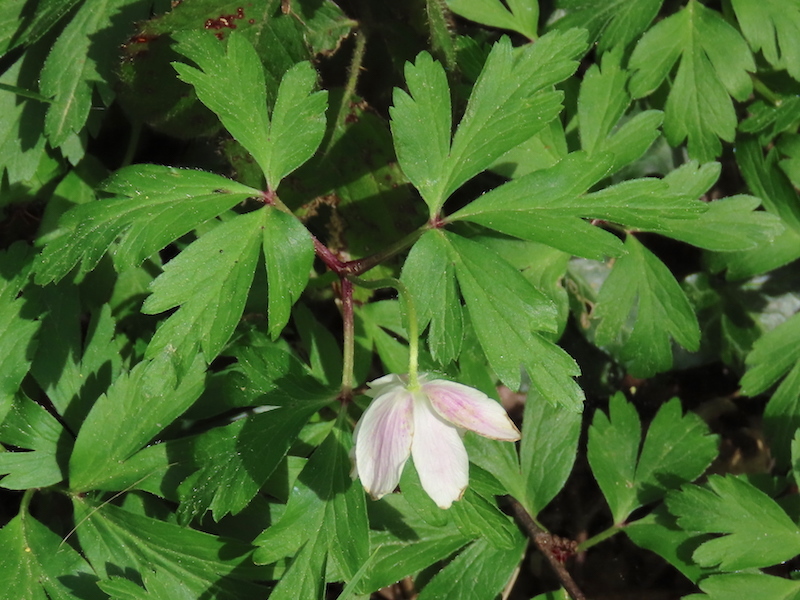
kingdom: Plantae
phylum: Tracheophyta
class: Magnoliopsida
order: Ranunculales
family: Ranunculaceae
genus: Anemone
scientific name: Anemone nemorosa
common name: Wood anemone
